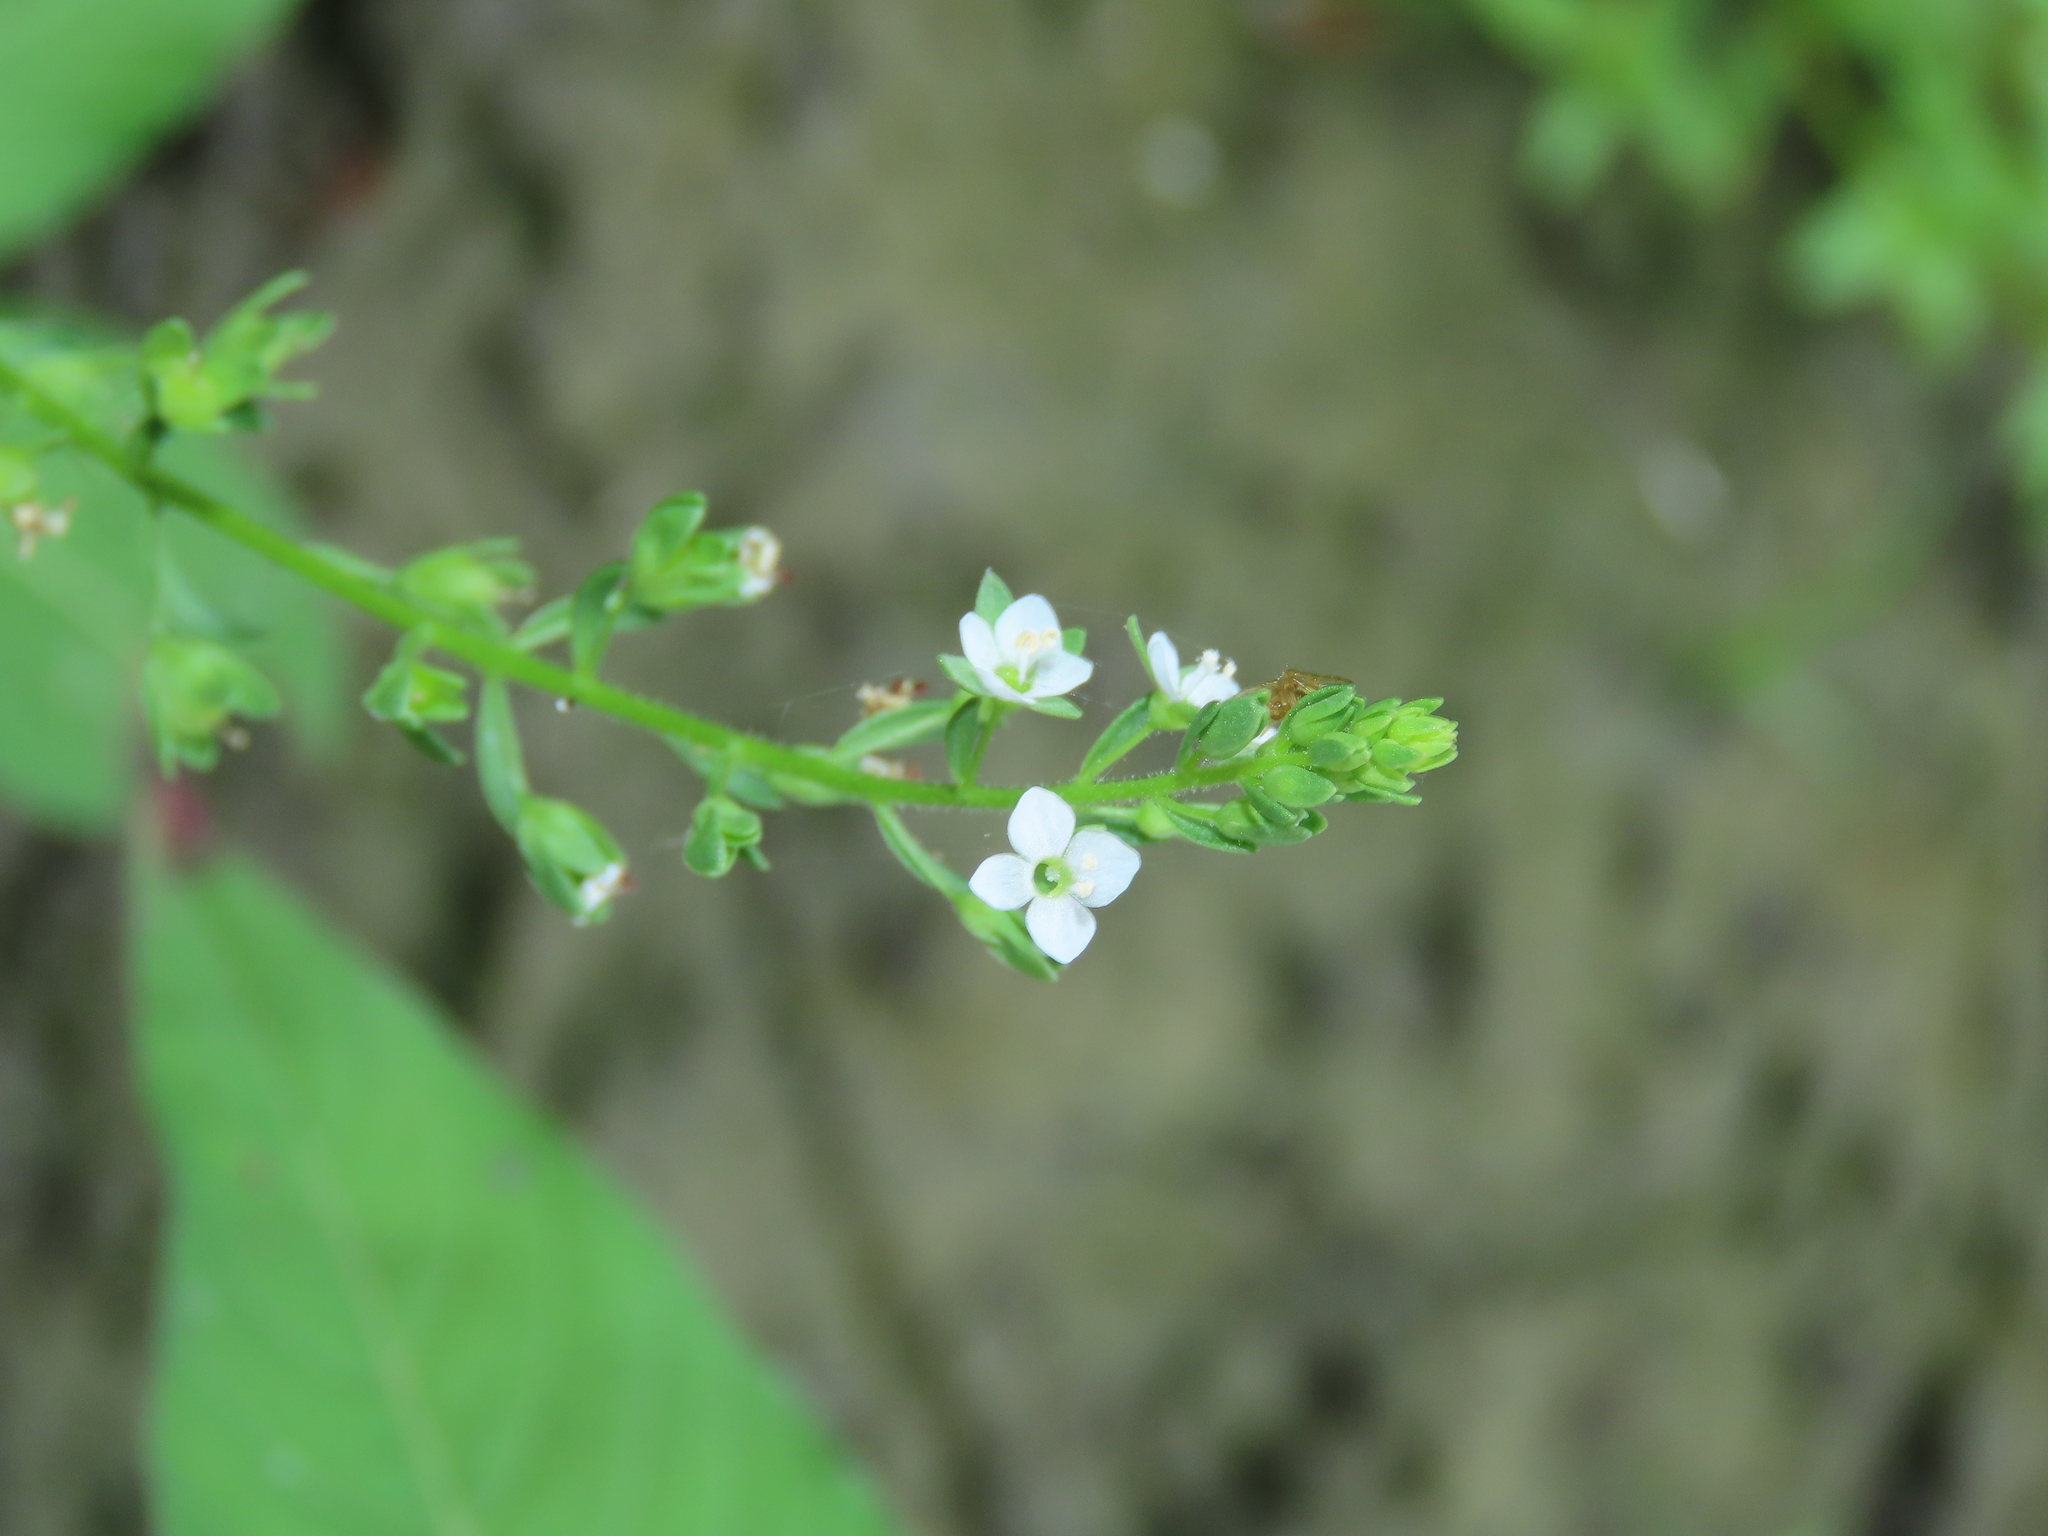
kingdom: Plantae
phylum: Tracheophyta
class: Magnoliopsida
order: Lamiales
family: Plantaginaceae
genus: Veronica
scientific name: Veronica undulata
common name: Undulate speedwell
